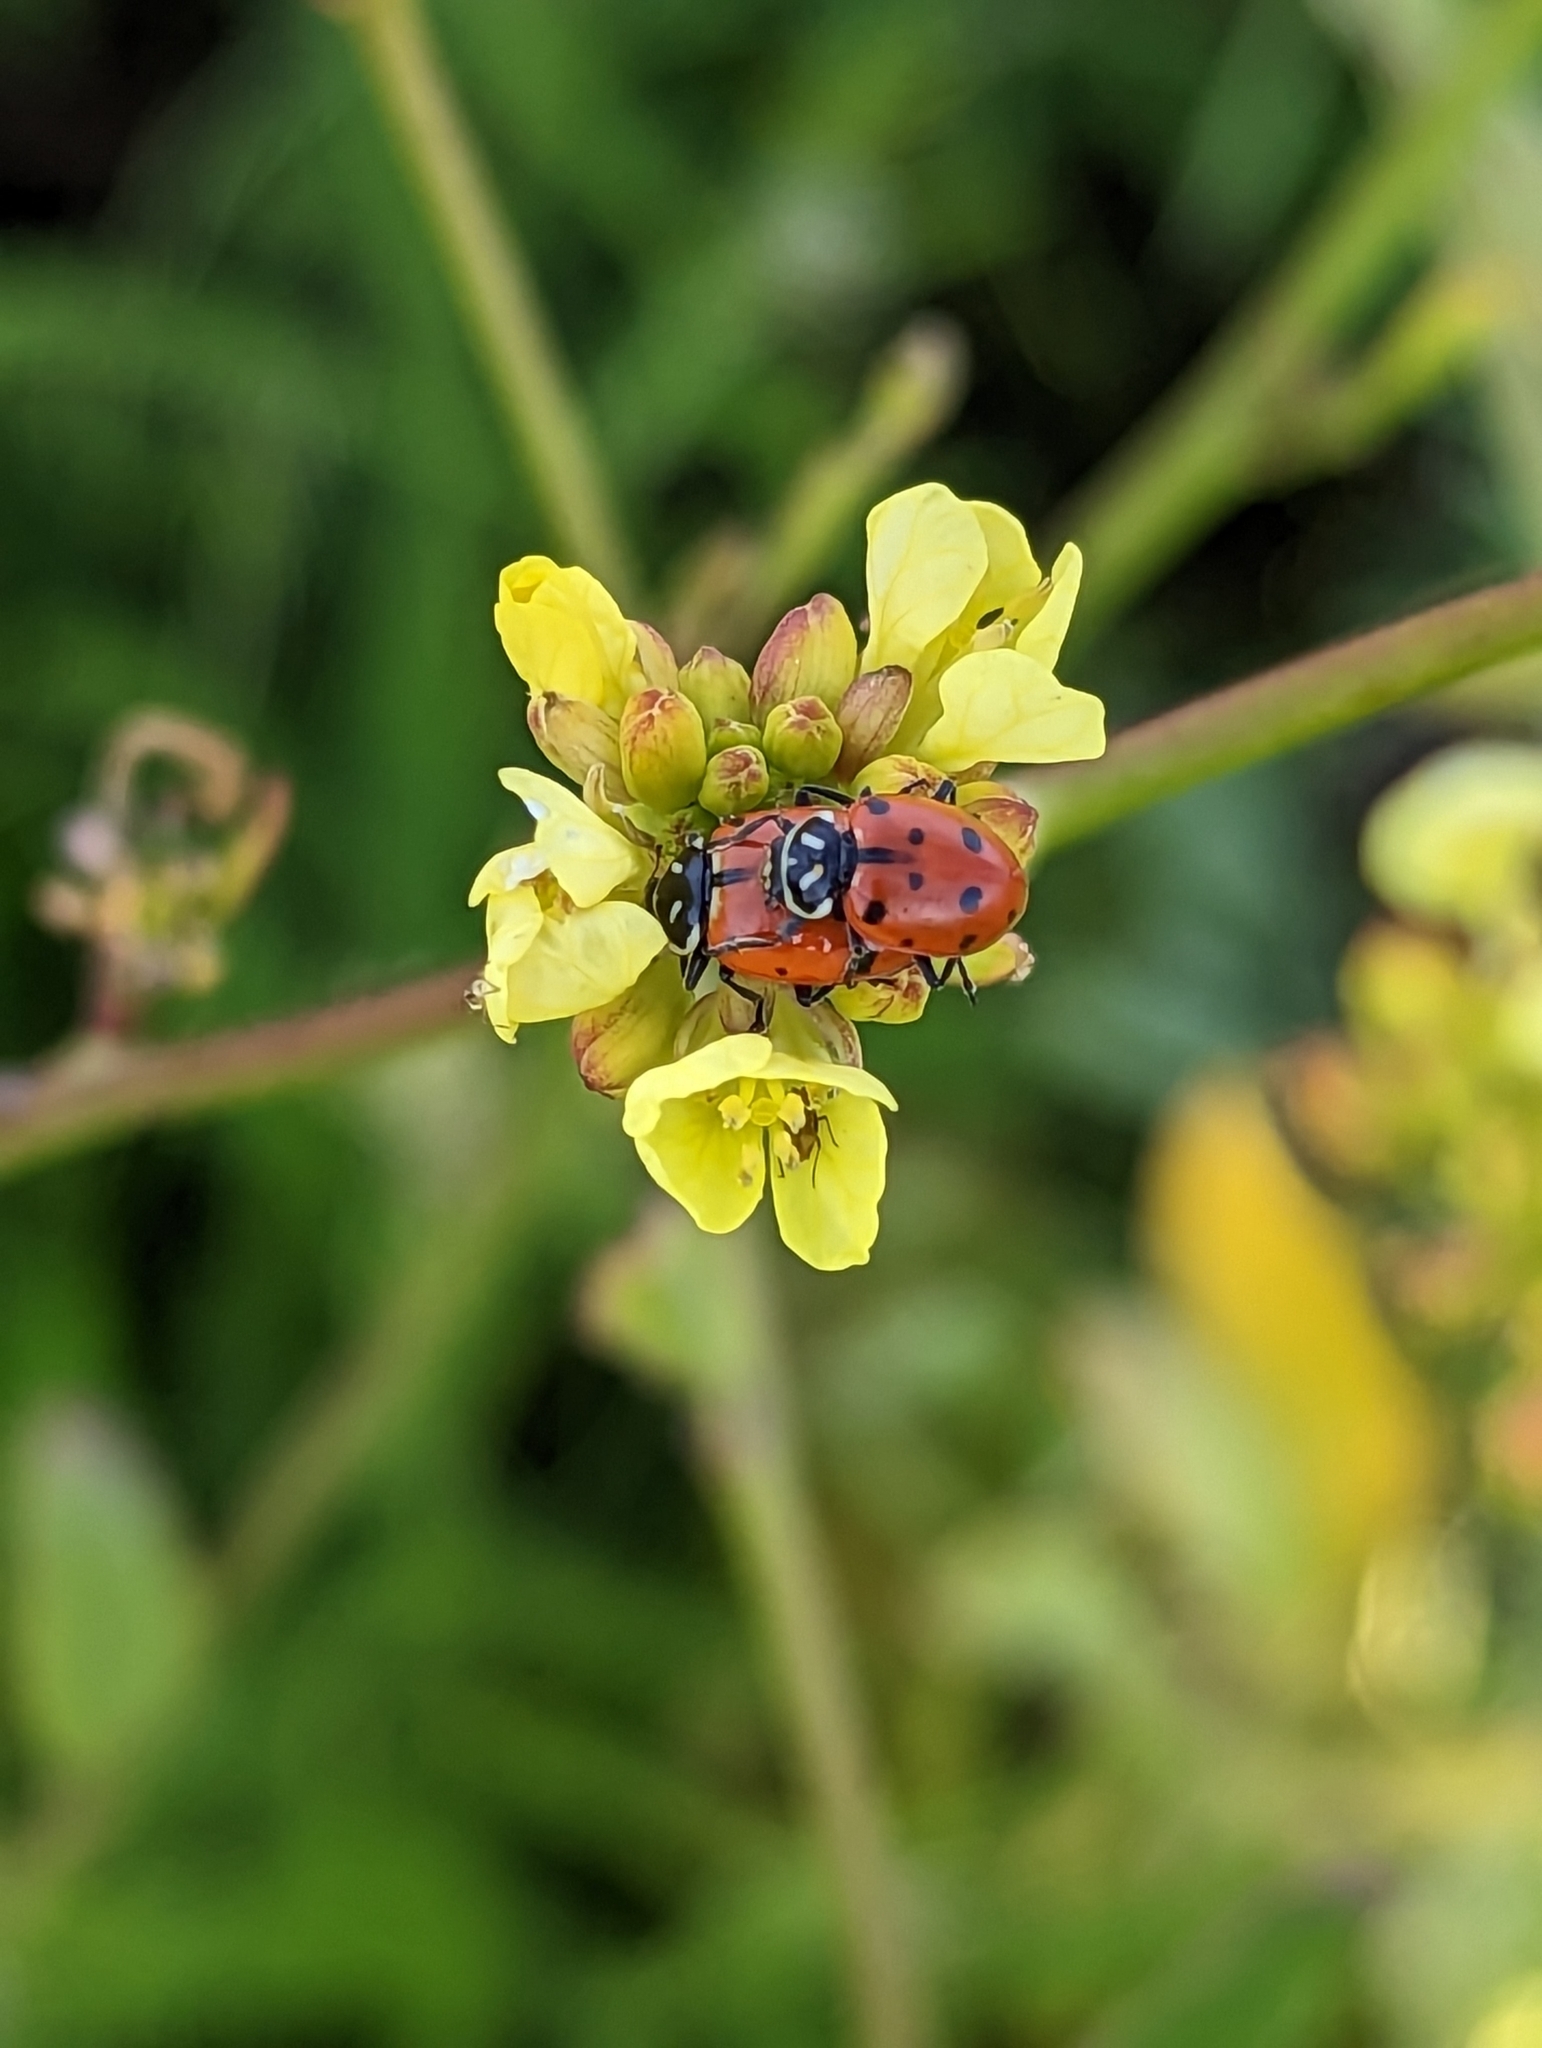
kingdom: Animalia
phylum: Arthropoda
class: Insecta
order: Coleoptera
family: Coccinellidae
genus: Hippodamia
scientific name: Hippodamia convergens
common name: Convergent lady beetle
